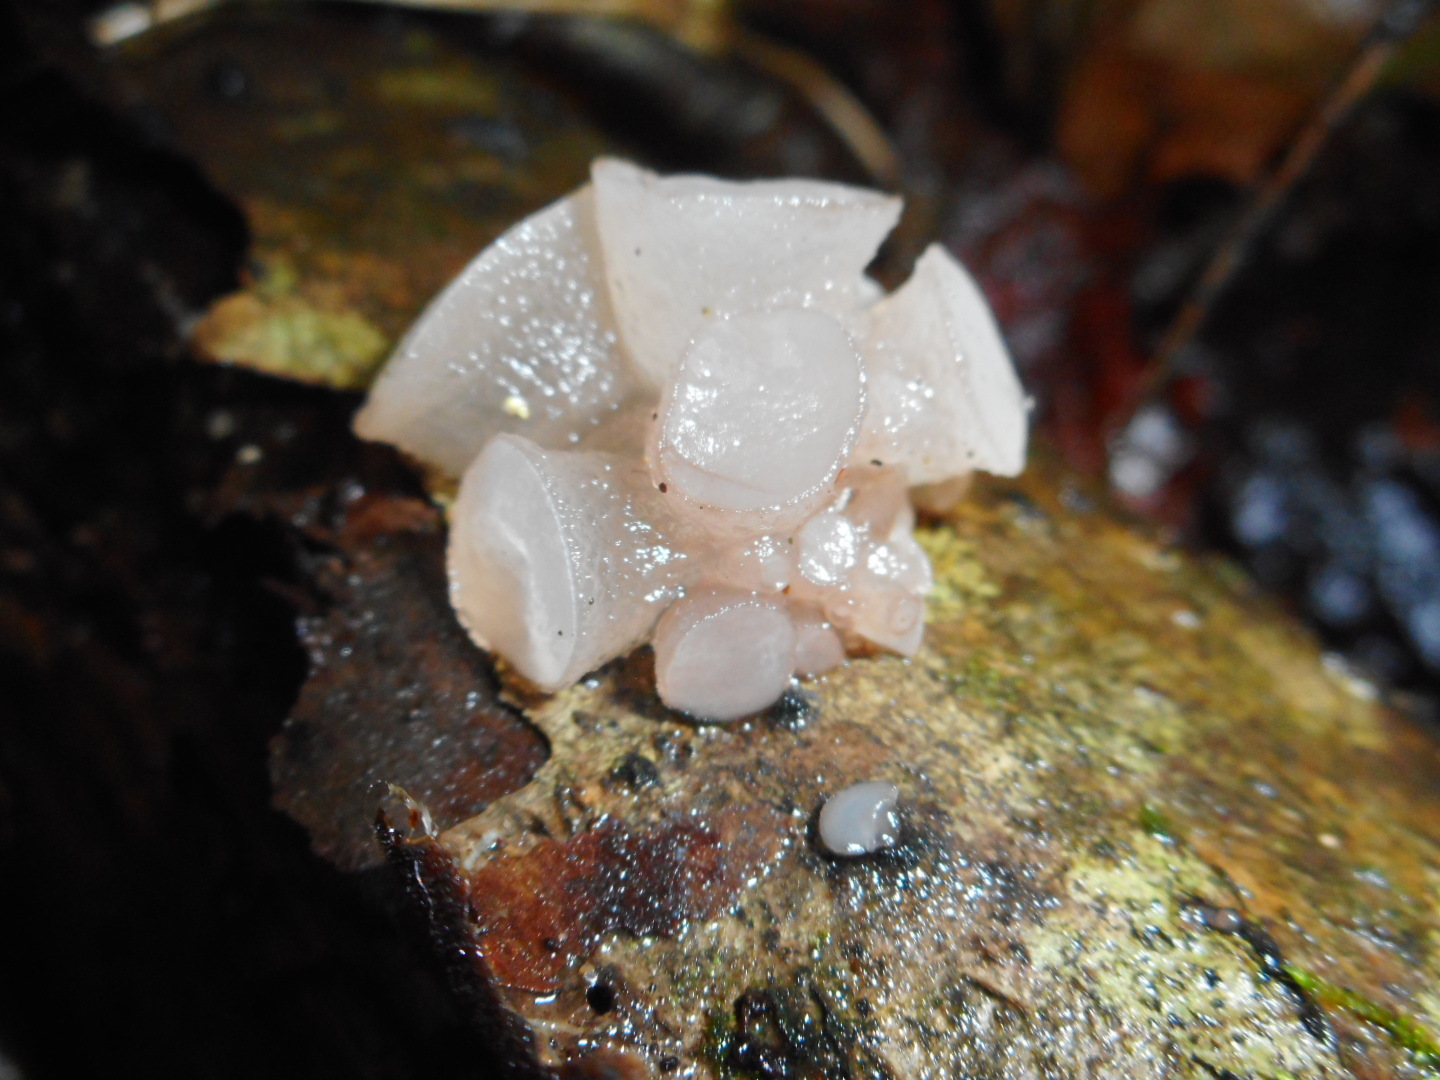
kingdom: Fungi
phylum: Ascomycota
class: Leotiomycetes
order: Helotiales
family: Gelatinodiscaceae
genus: Neobulgaria
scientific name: Neobulgaria pura
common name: Beech jelly-disc
